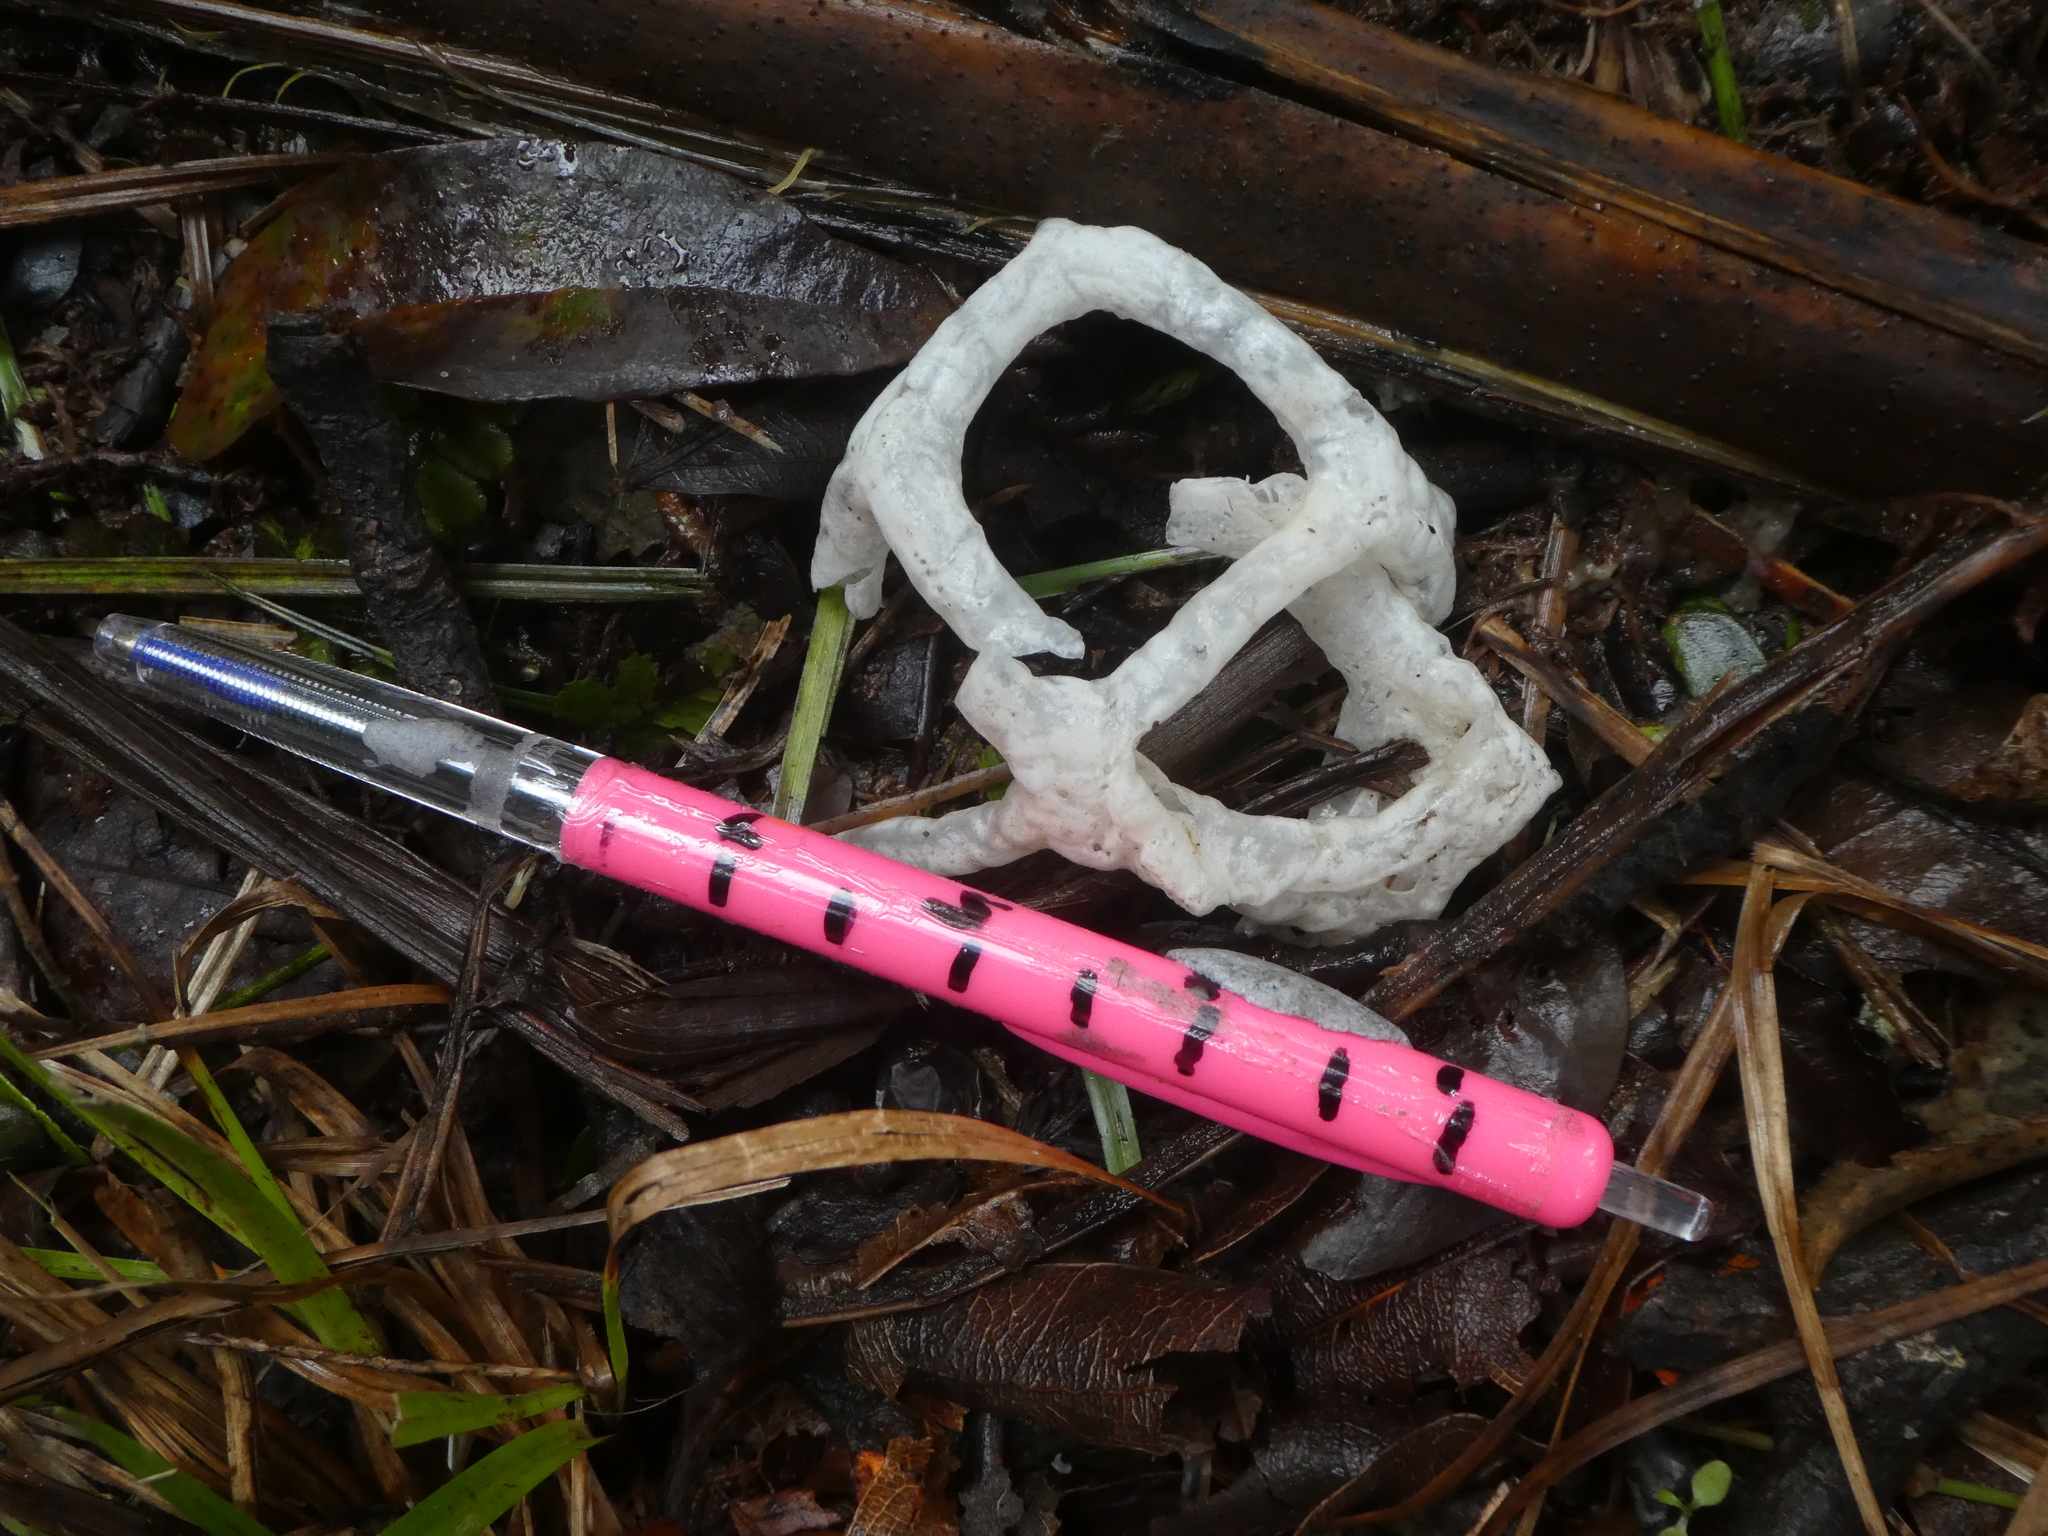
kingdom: Fungi
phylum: Basidiomycota
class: Agaricomycetes
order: Phallales
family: Phallaceae
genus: Ileodictyon
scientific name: Ileodictyon cibarium
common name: Basket fungus
